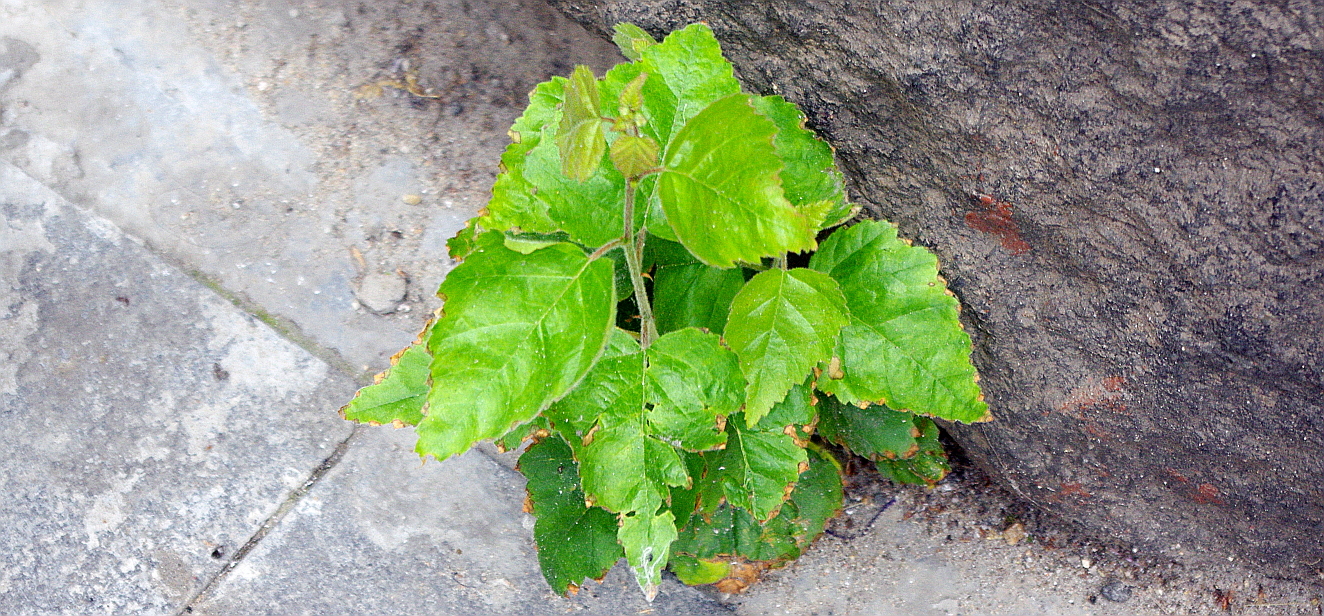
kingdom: Plantae
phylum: Tracheophyta
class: Magnoliopsida
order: Fagales
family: Betulaceae
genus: Betula
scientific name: Betula pubescens
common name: Downy birch
